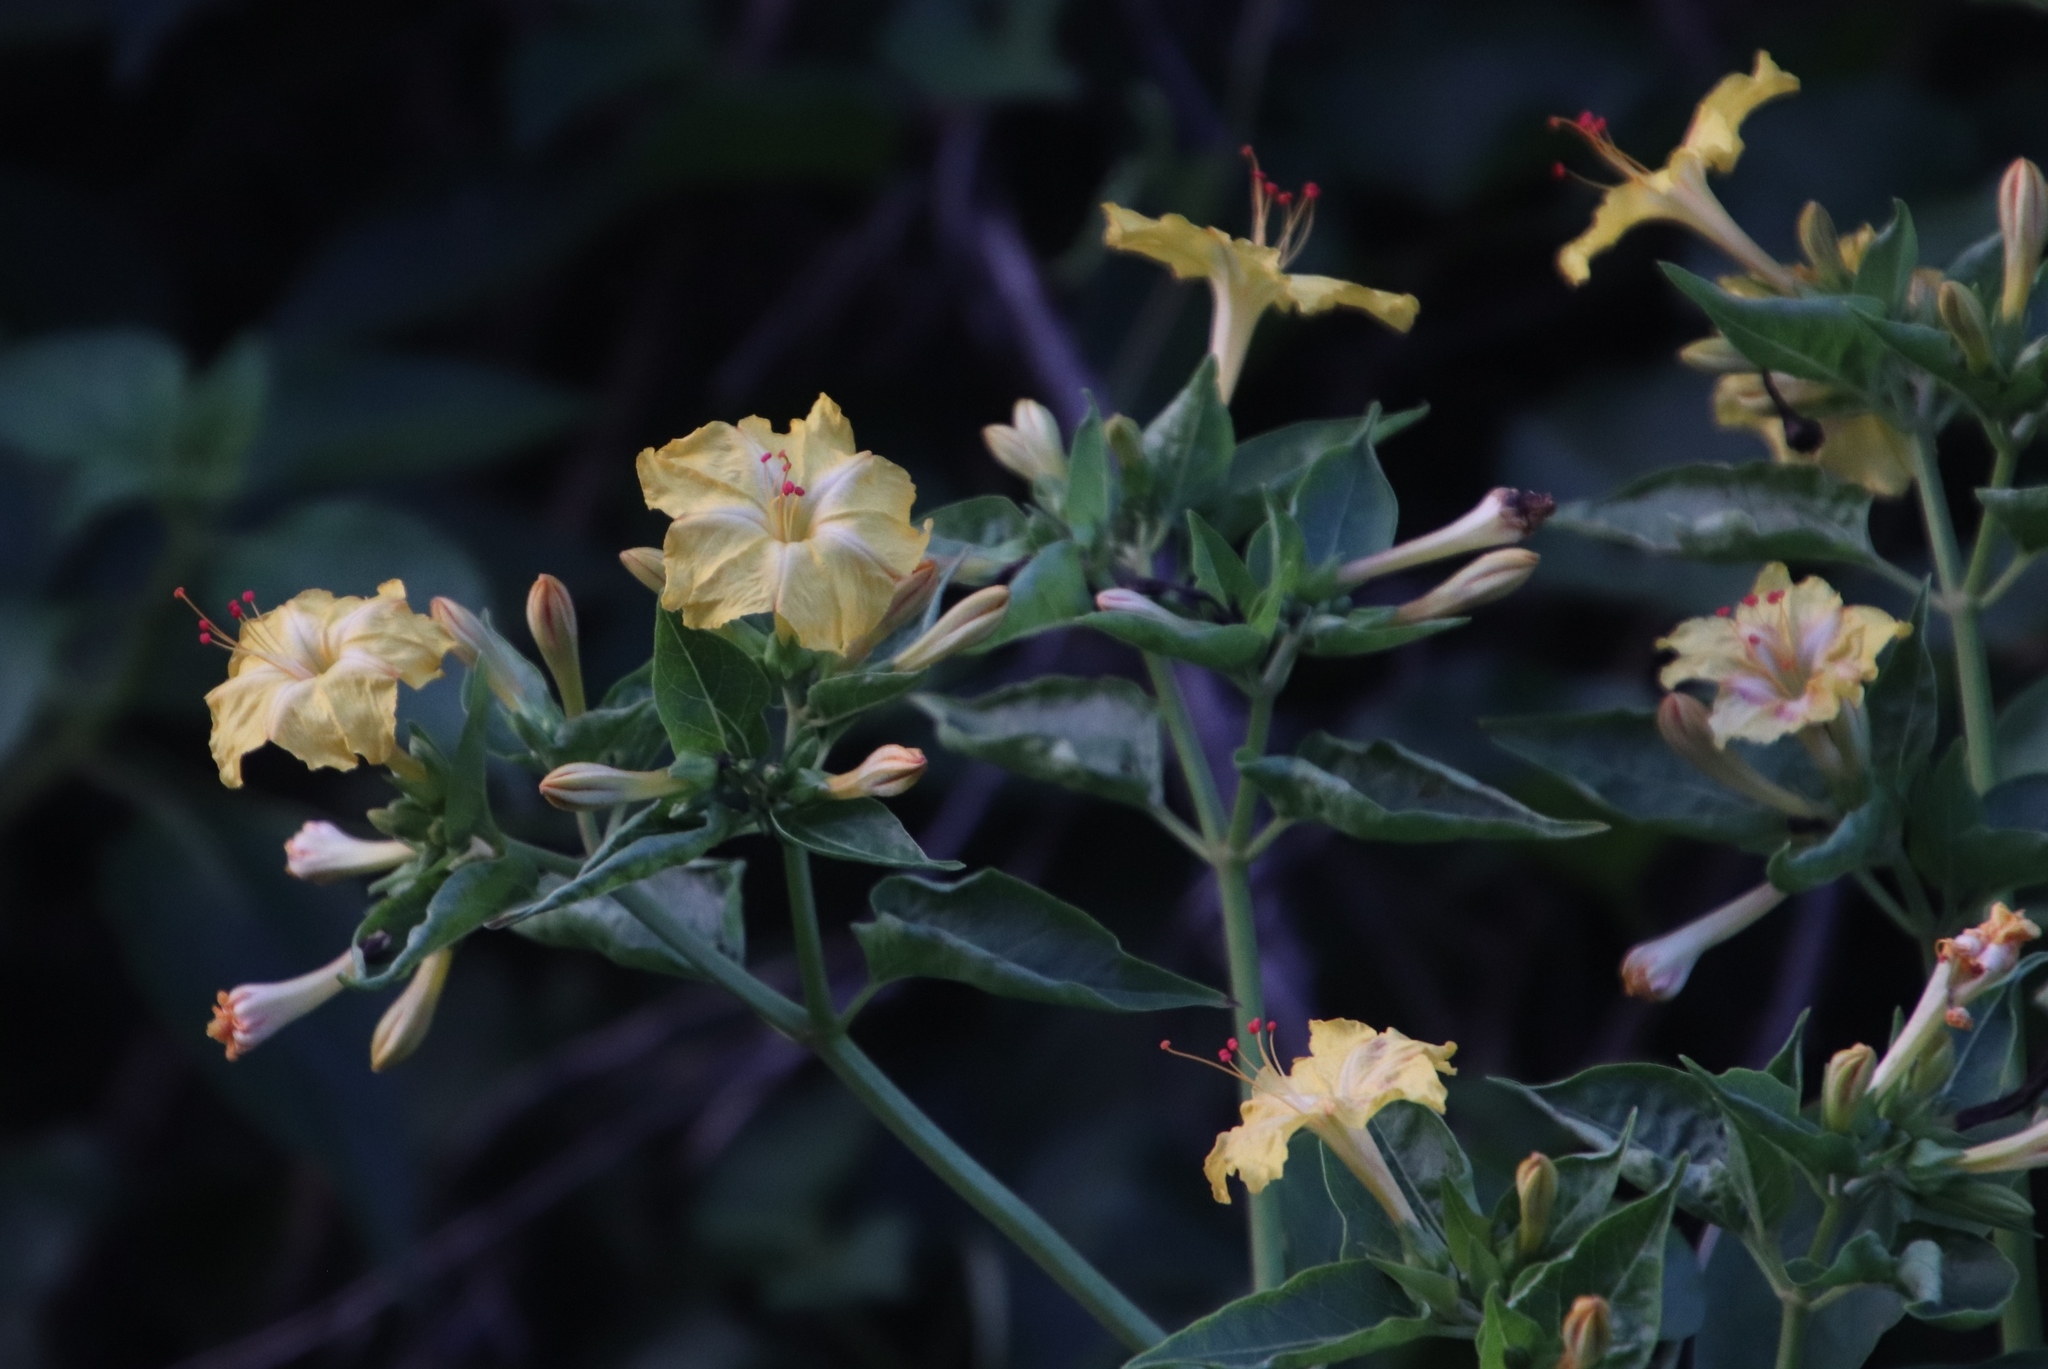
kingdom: Plantae
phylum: Tracheophyta
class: Magnoliopsida
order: Caryophyllales
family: Nyctaginaceae
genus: Mirabilis
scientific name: Mirabilis jalapa
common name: Marvel-of-peru
